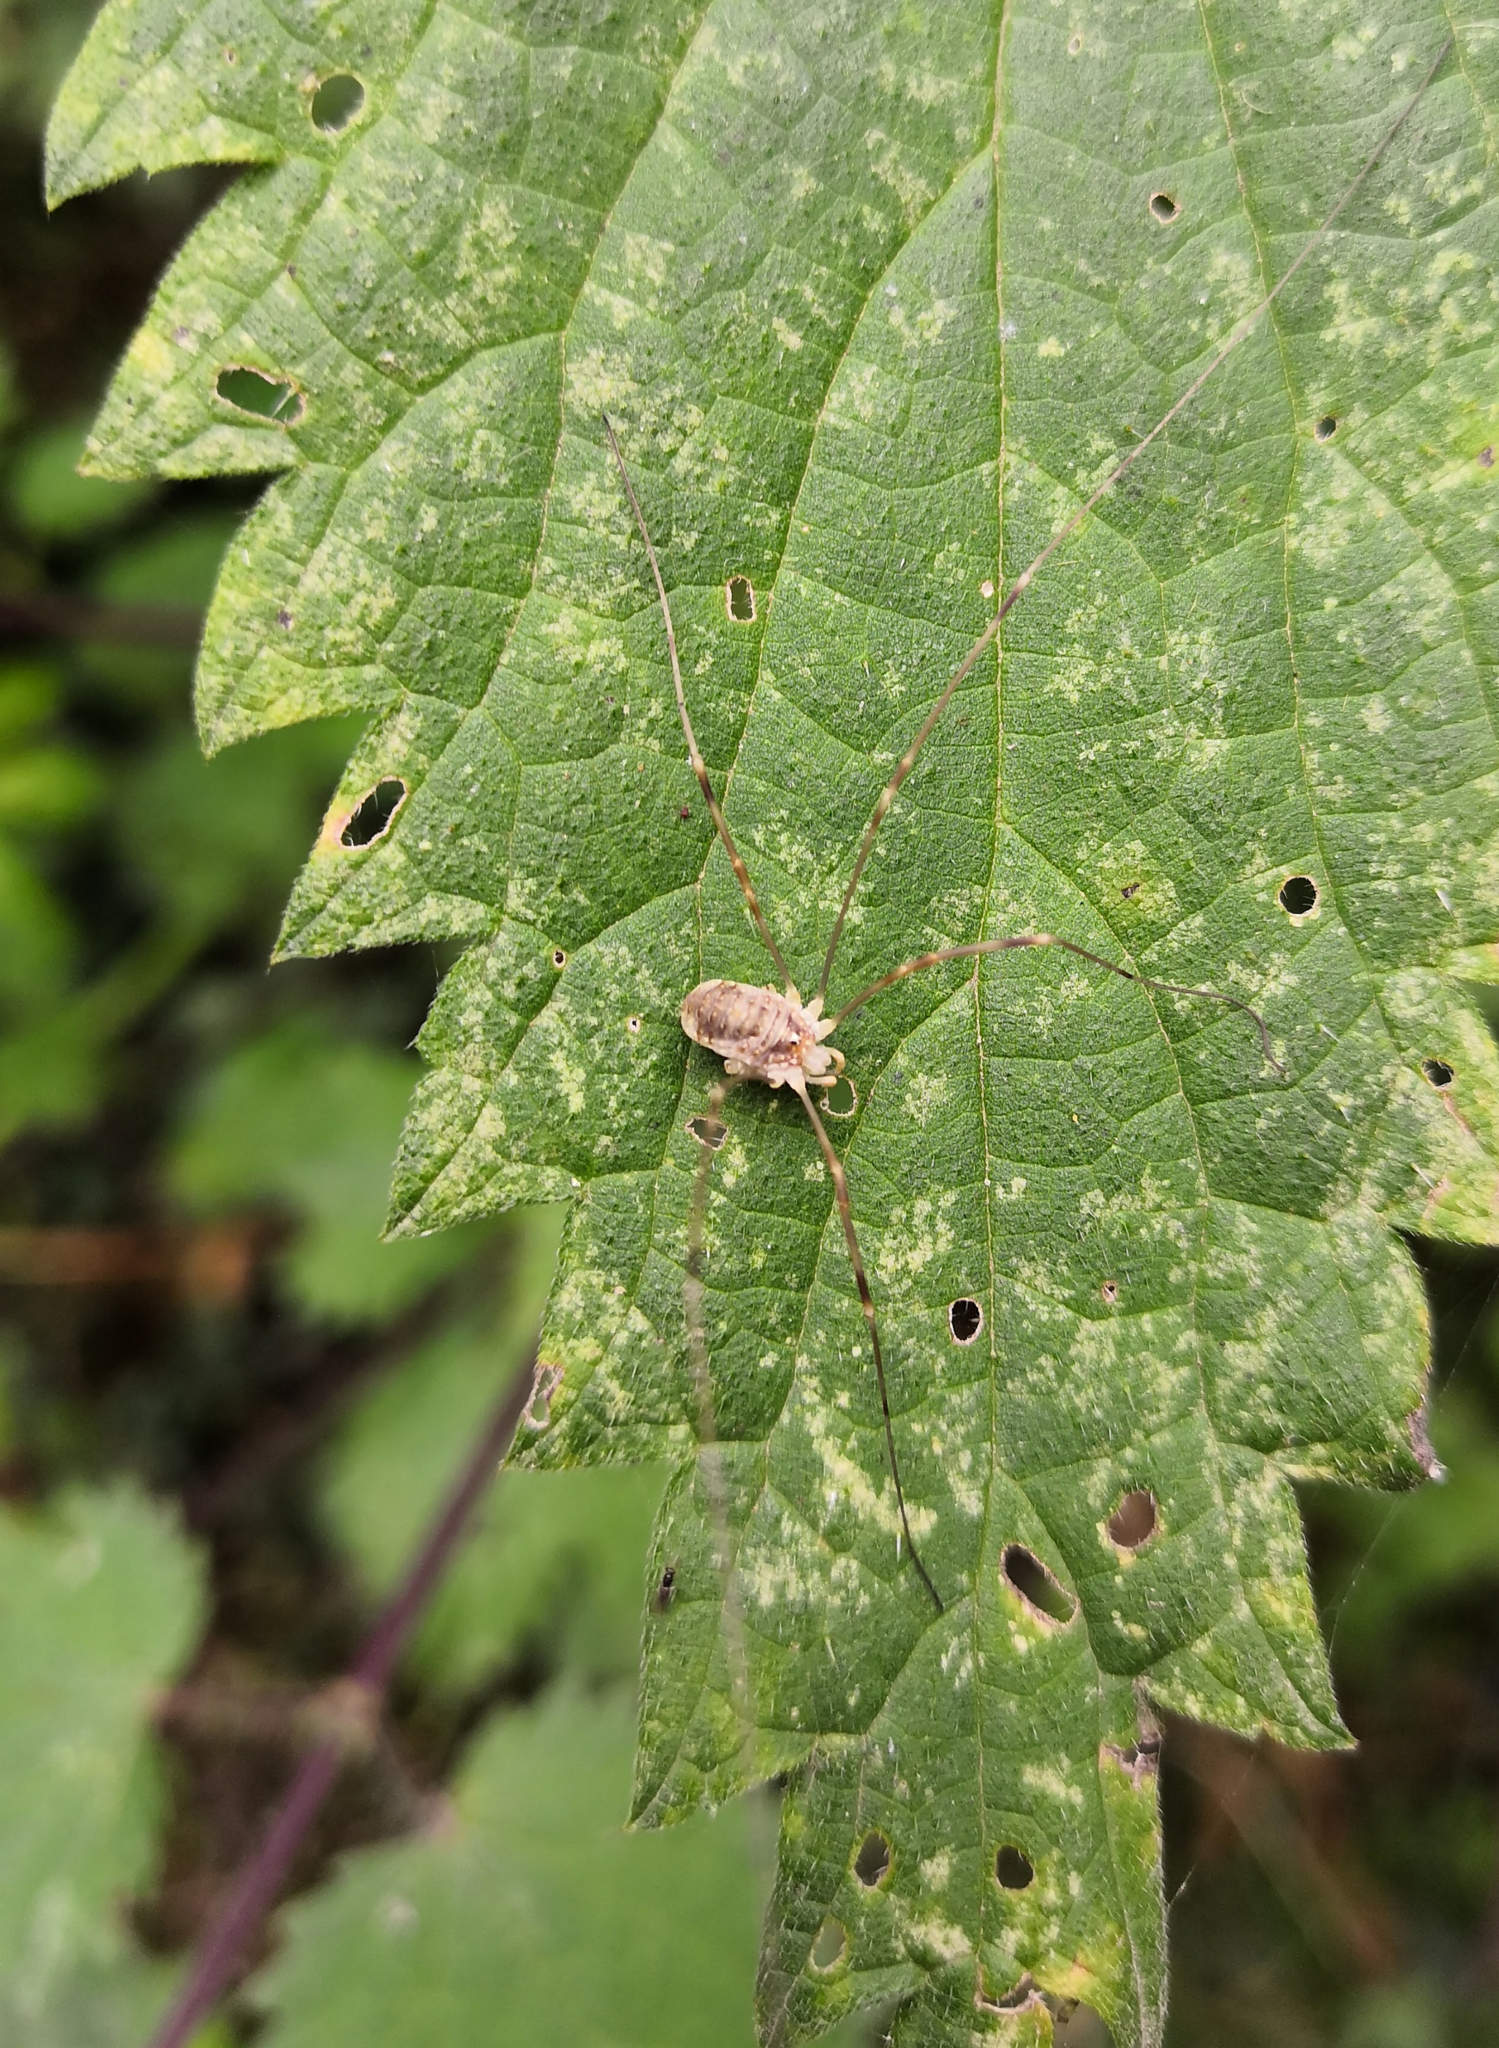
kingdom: Animalia
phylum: Arthropoda
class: Arachnida
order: Opiliones
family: Phalangiidae
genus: Opilio
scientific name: Opilio canestrinii
